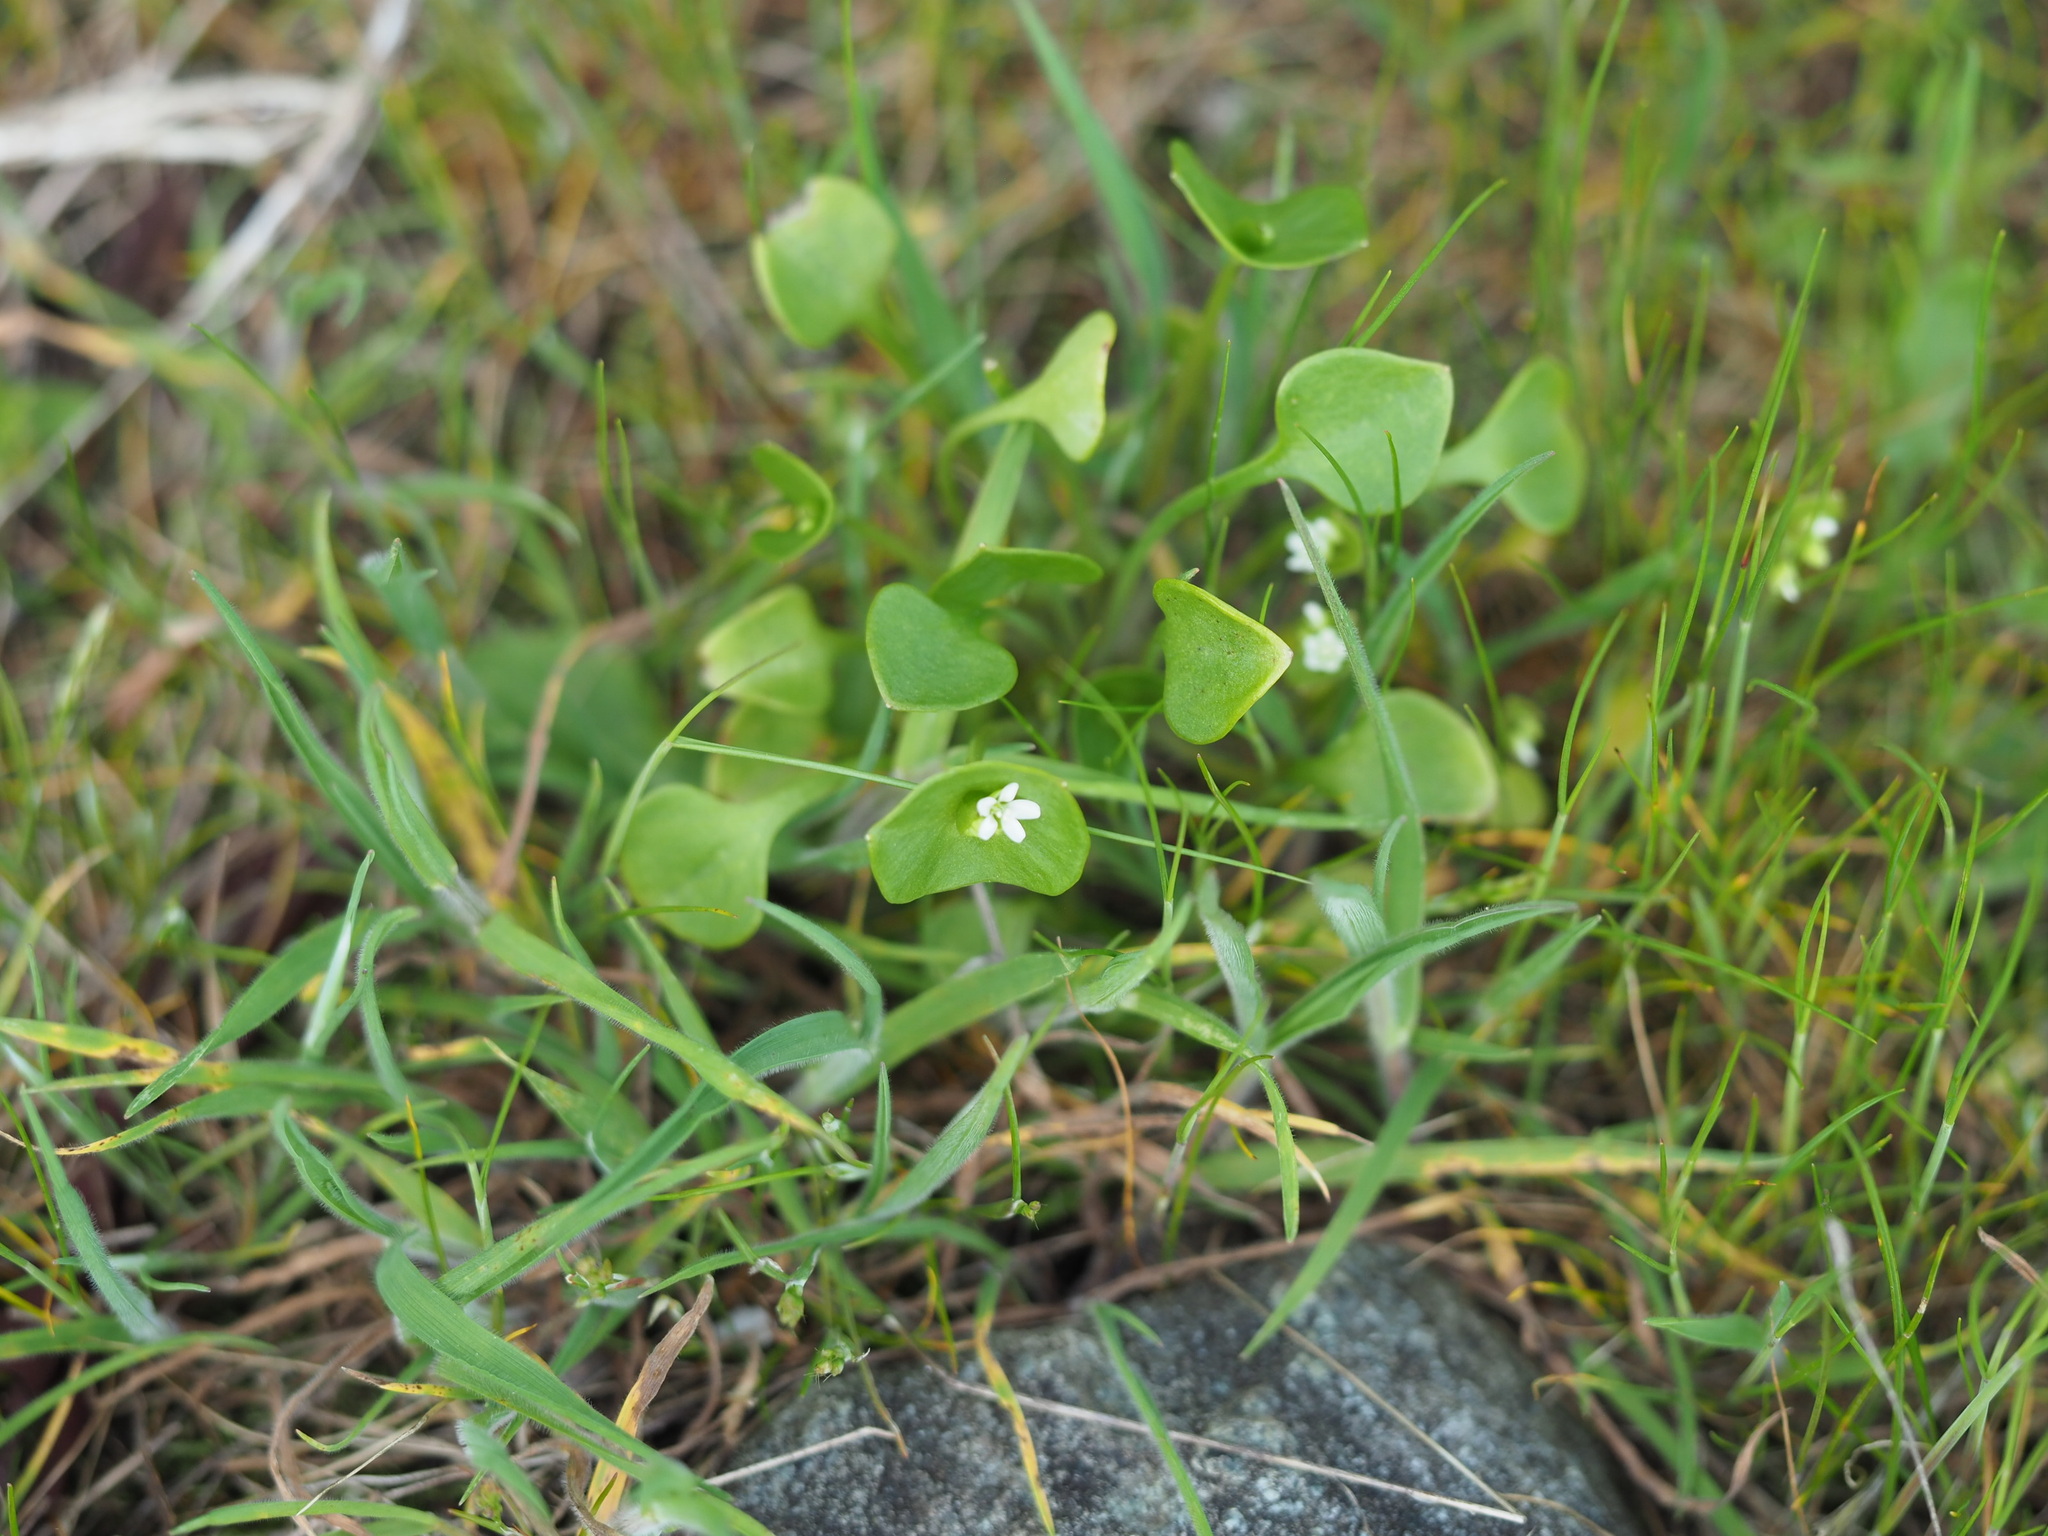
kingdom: Plantae
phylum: Tracheophyta
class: Magnoliopsida
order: Caryophyllales
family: Montiaceae
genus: Claytonia
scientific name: Claytonia perfoliata
